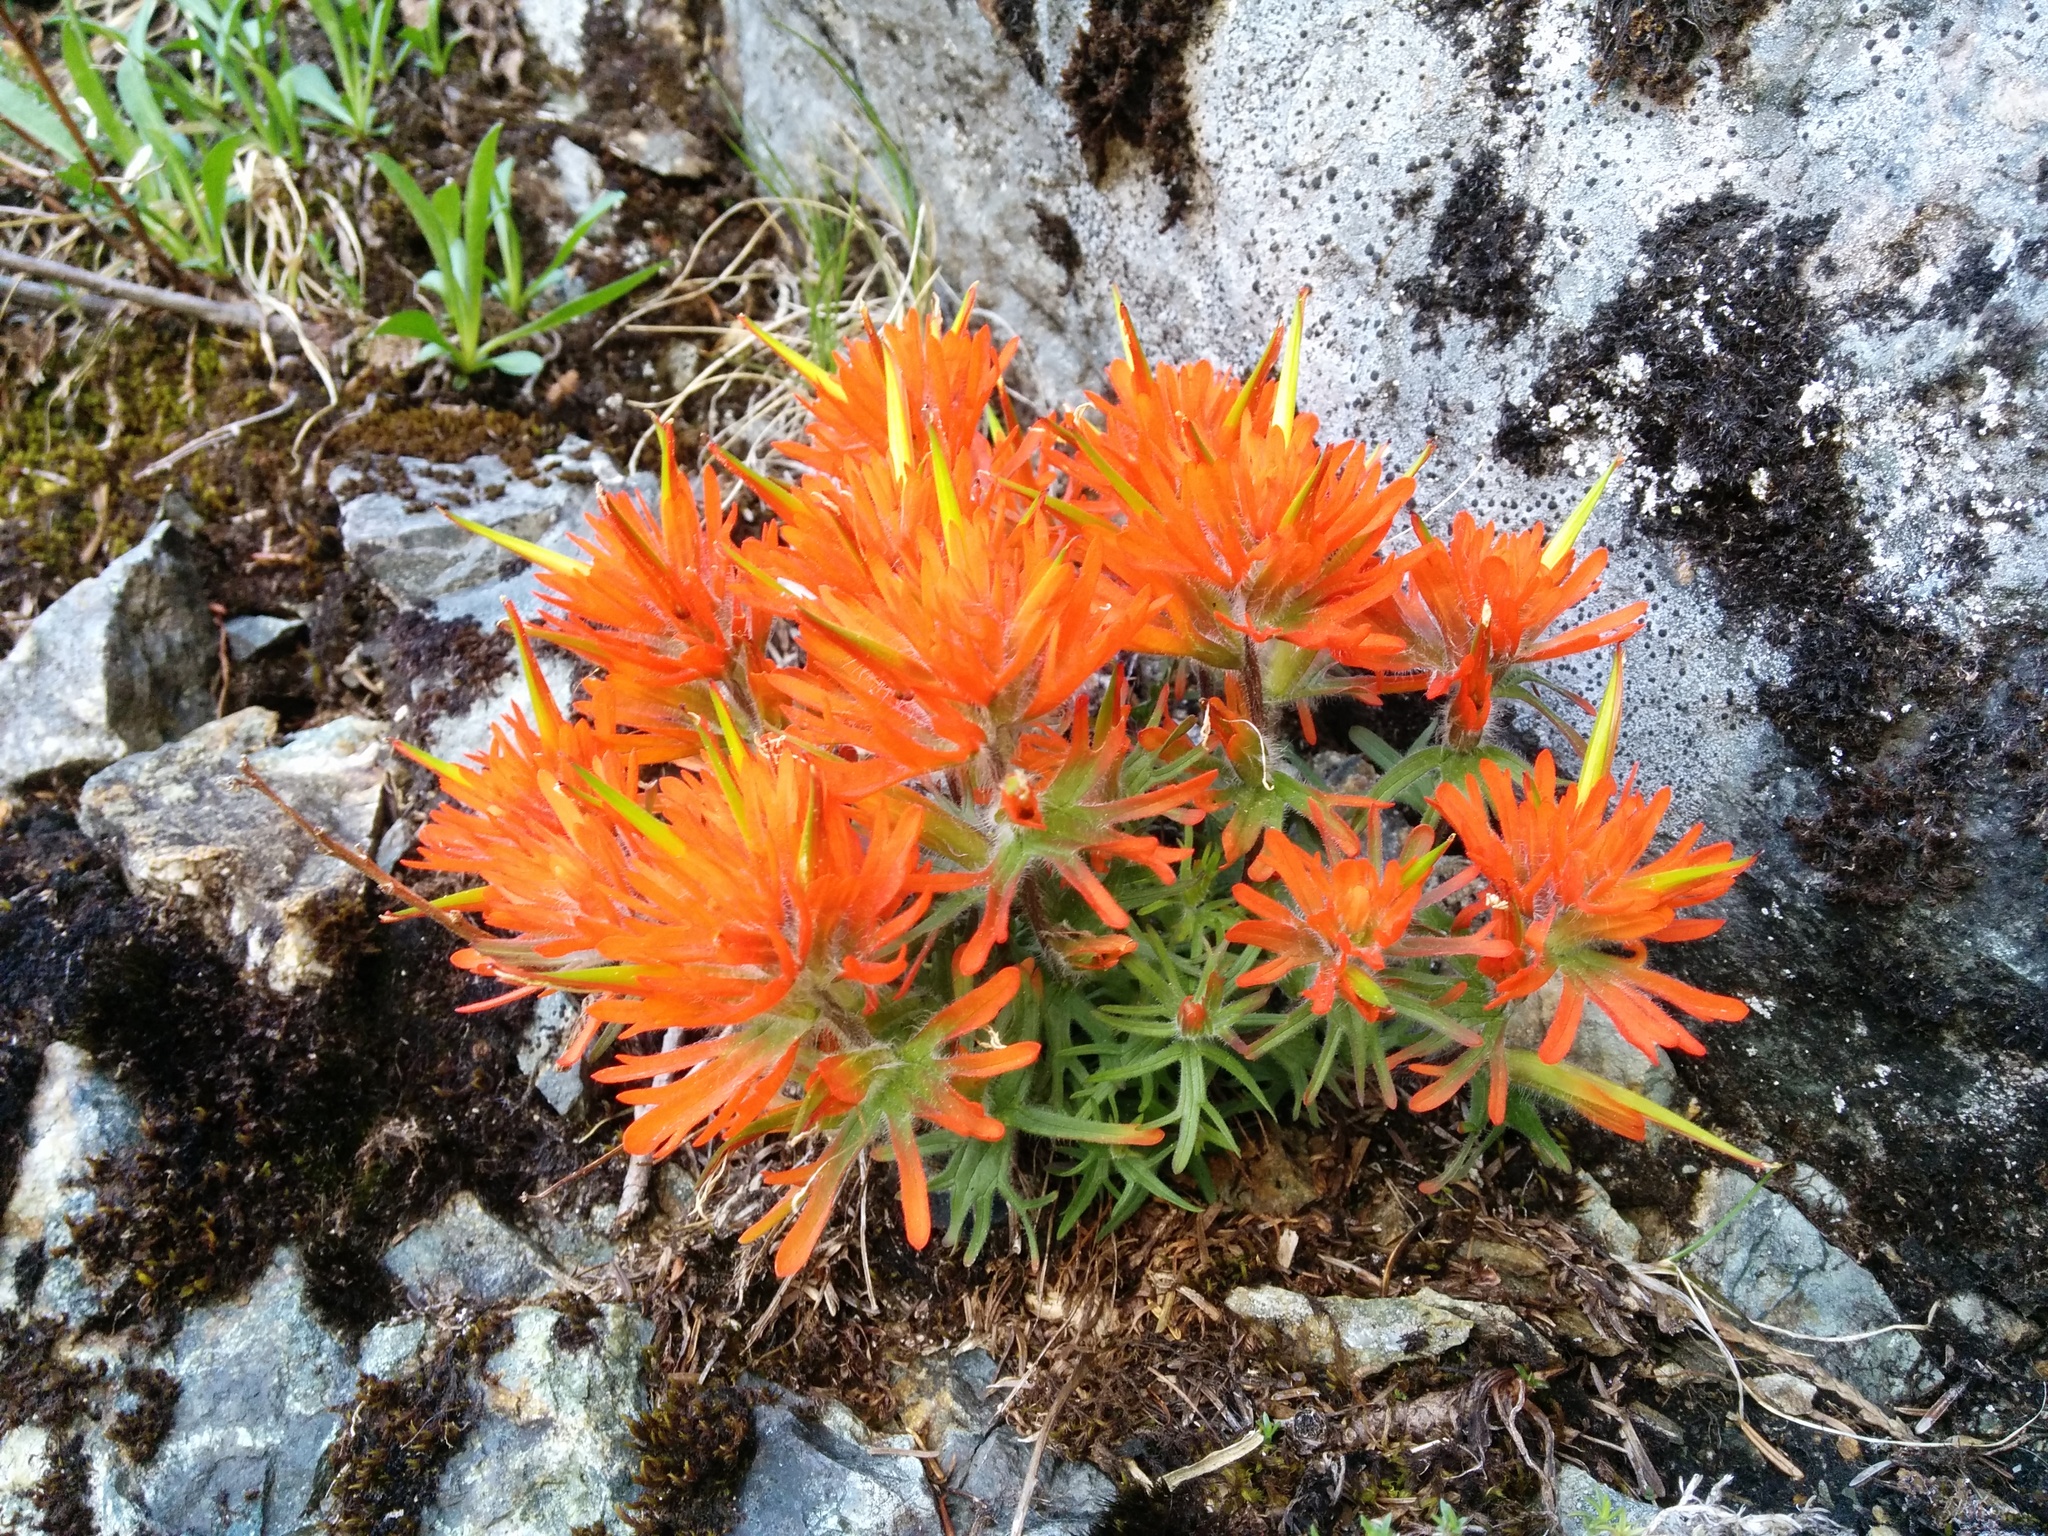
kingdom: Plantae
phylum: Tracheophyta
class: Magnoliopsida
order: Lamiales
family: Orobanchaceae
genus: Castilleja
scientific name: Castilleja rupicola
